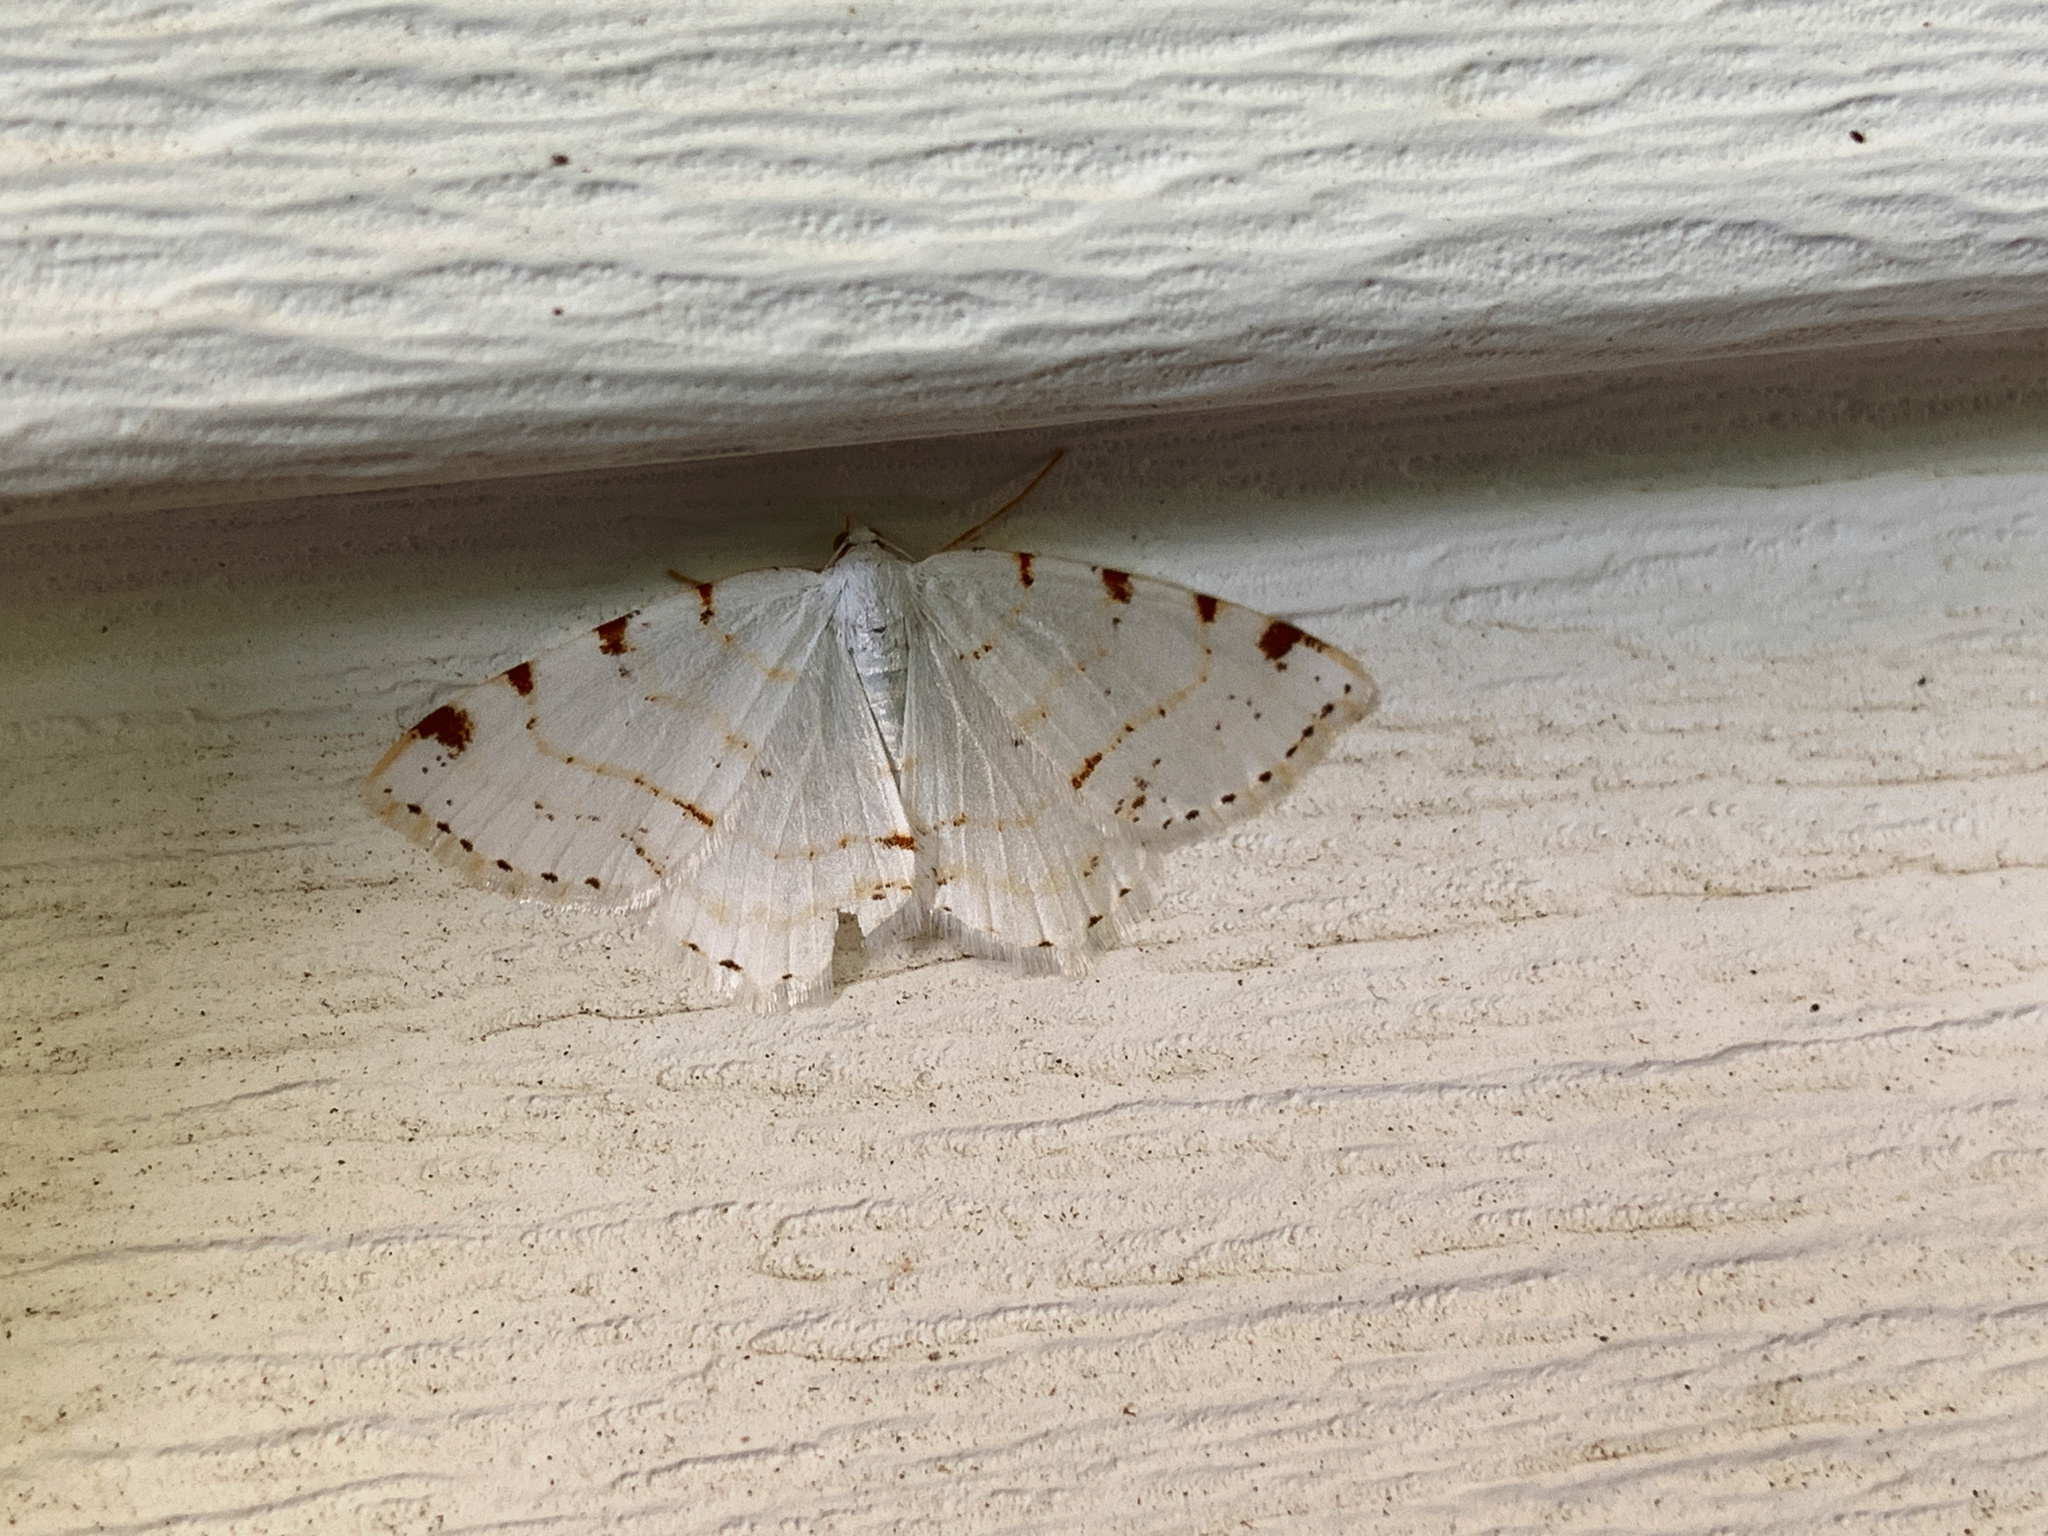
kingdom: Animalia
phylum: Arthropoda
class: Insecta
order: Lepidoptera
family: Geometridae
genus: Macaria
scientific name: Macaria pustularia
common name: Lesser maple spanworm moth
